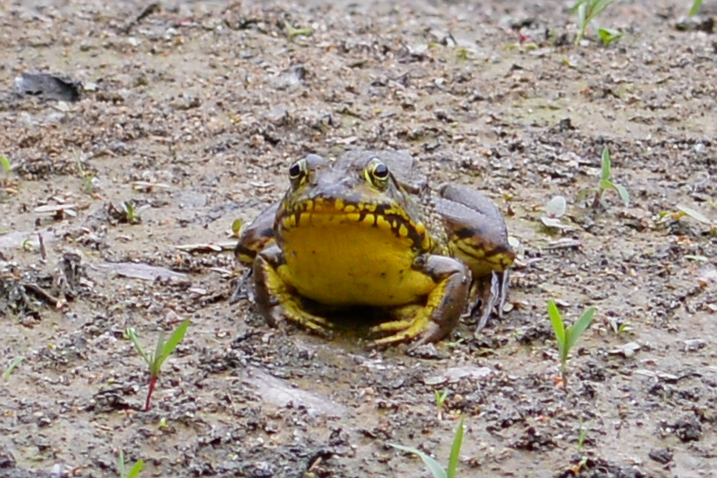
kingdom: Animalia
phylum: Chordata
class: Amphibia
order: Anura
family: Ranidae
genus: Lithobates
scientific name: Lithobates clamitans
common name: Green frog
